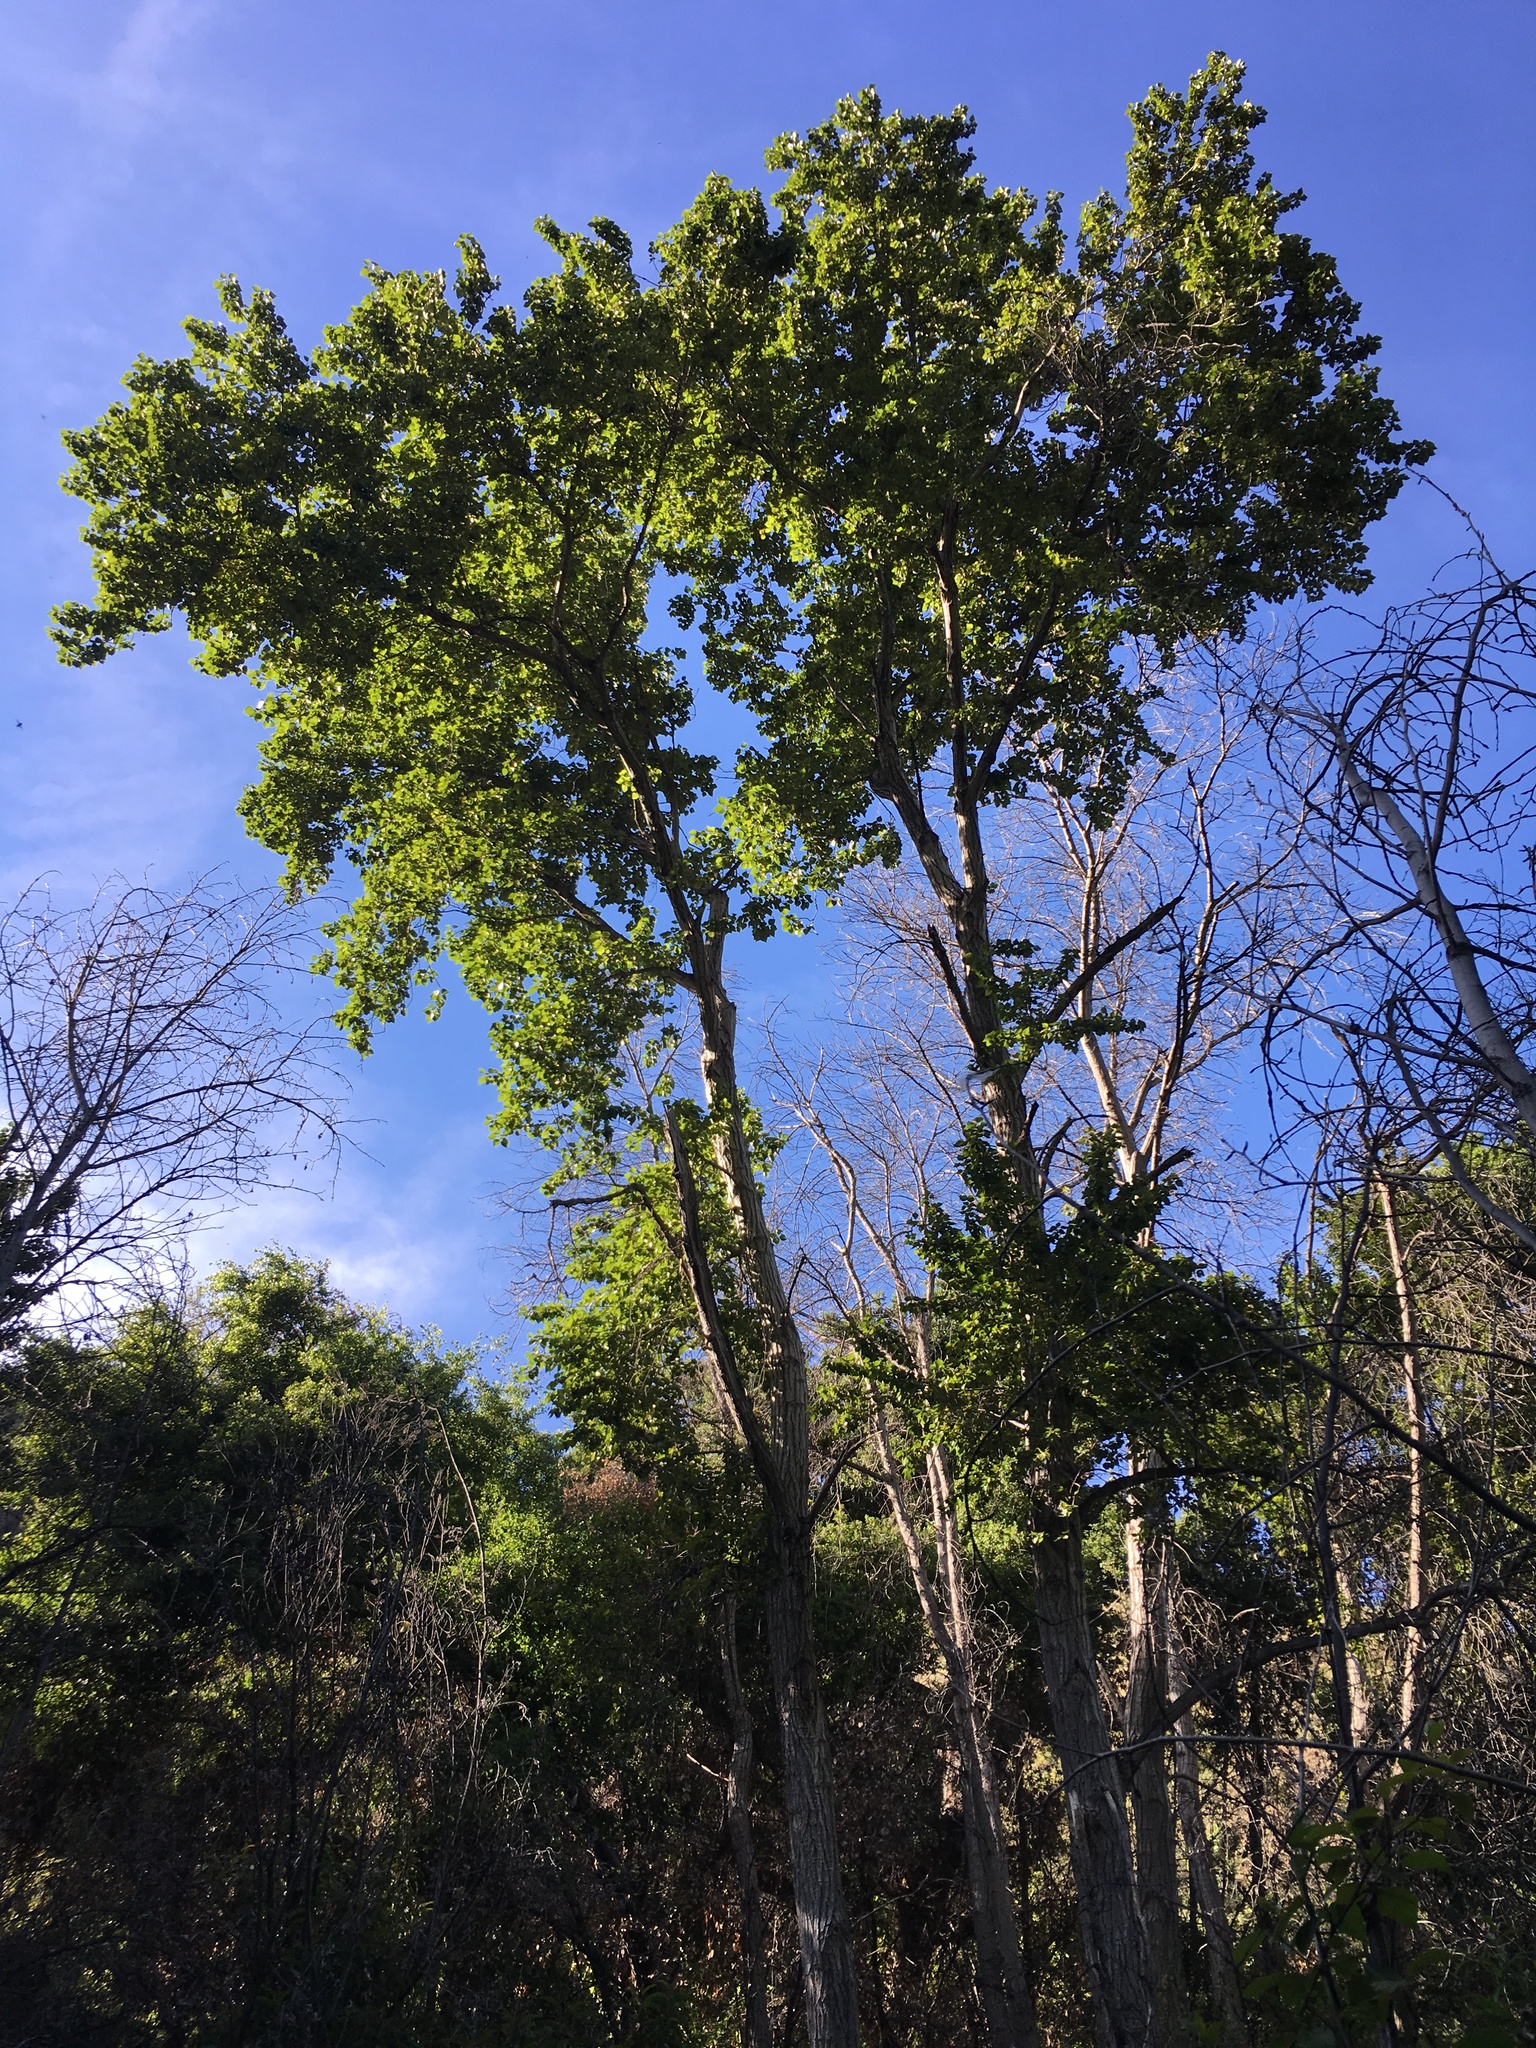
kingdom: Plantae
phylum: Tracheophyta
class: Magnoliopsida
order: Malpighiales
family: Salicaceae
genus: Populus
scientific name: Populus fremontii
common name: Fremont's cottonwood
